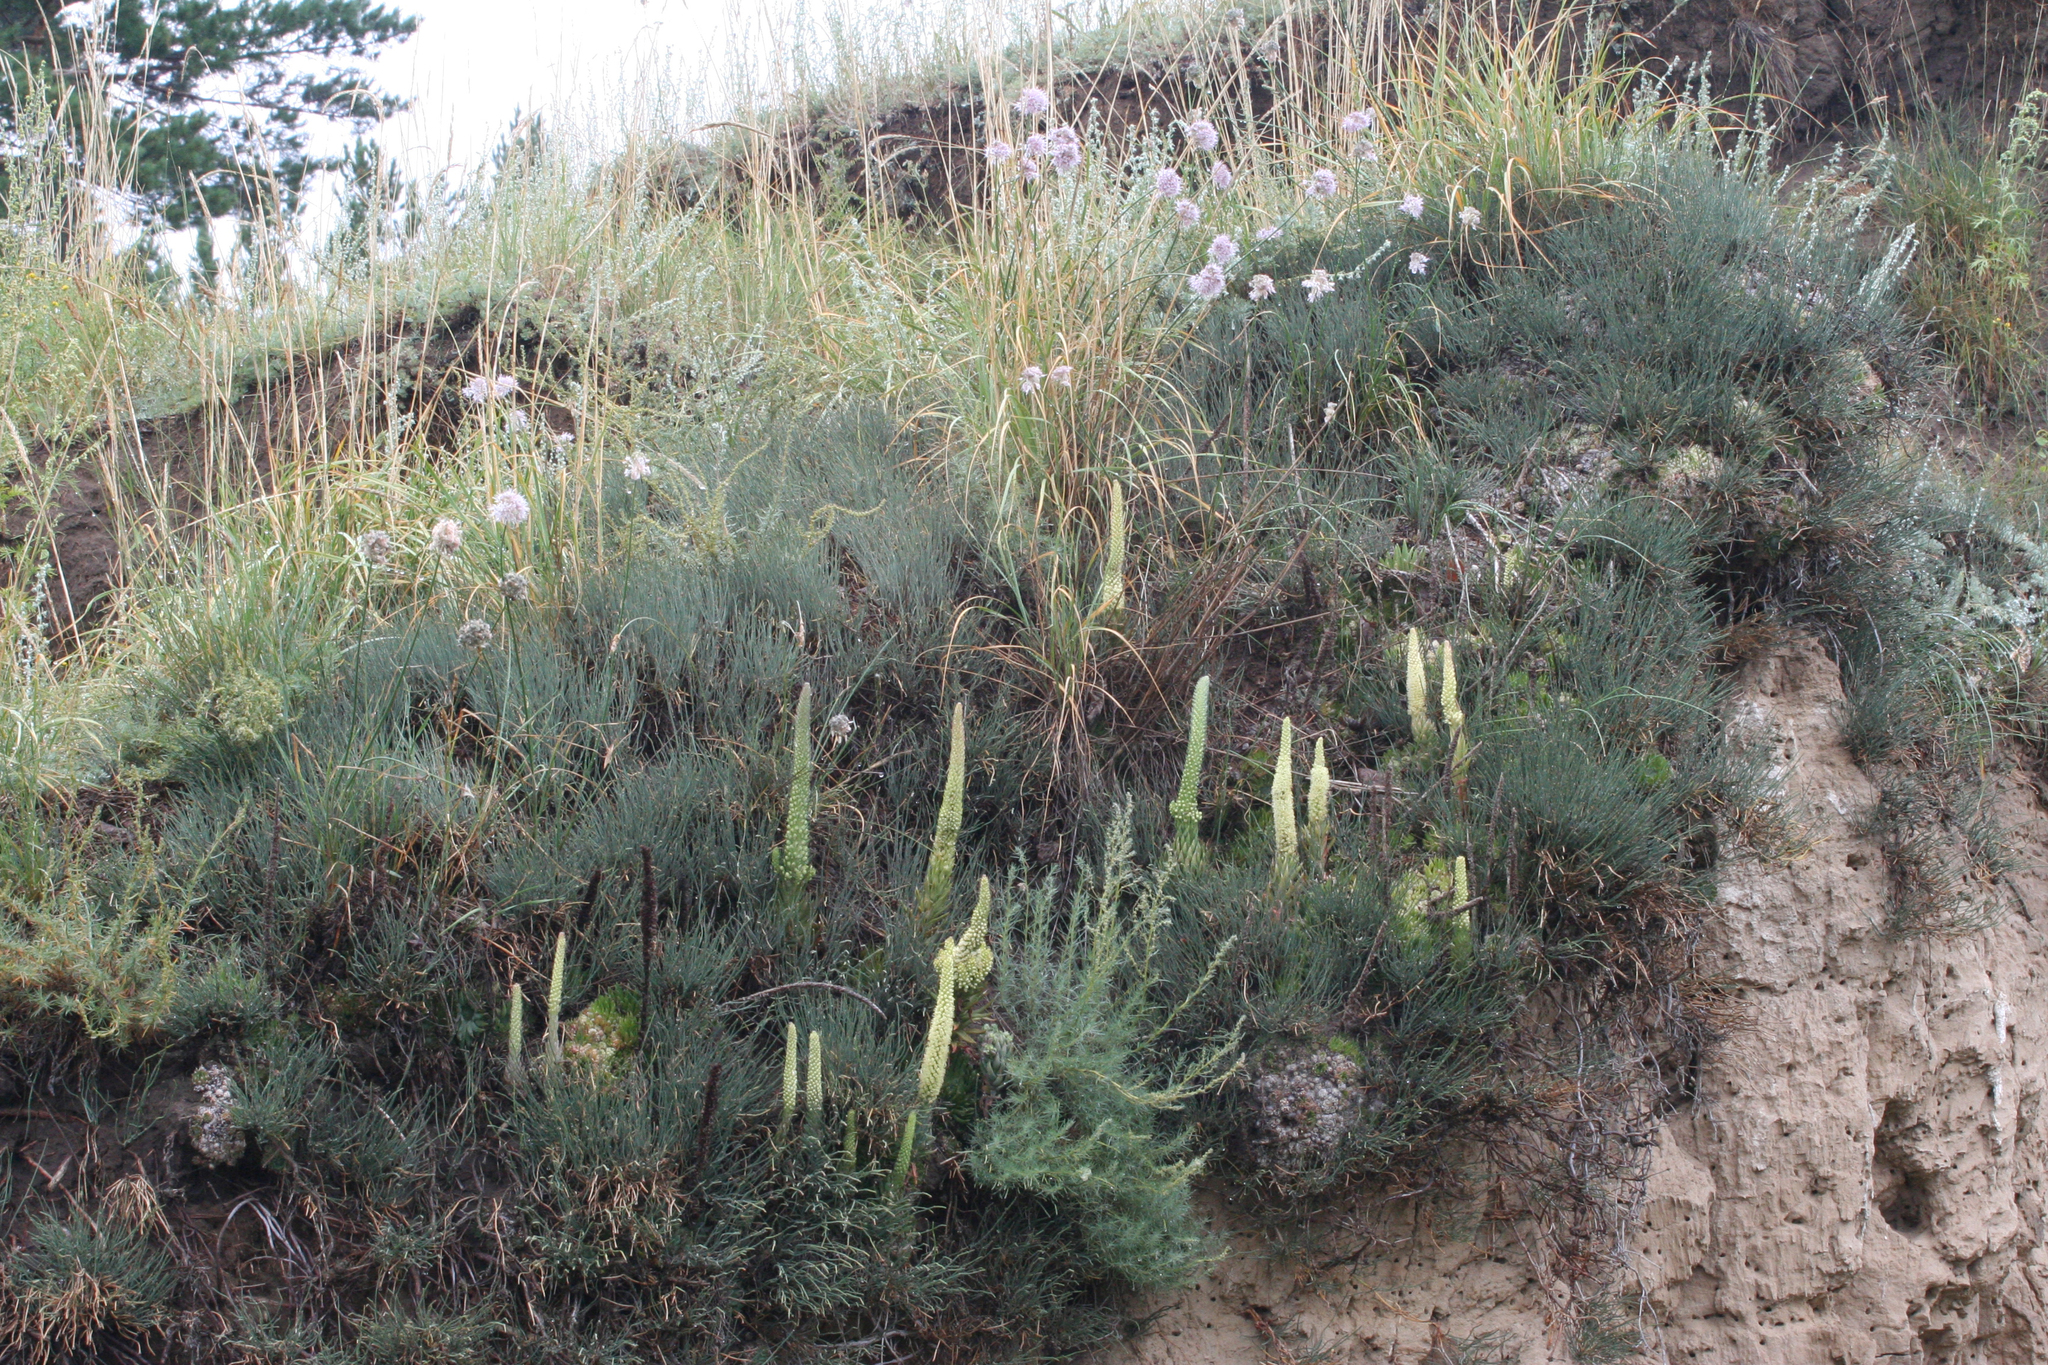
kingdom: Plantae
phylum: Tracheophyta
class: Magnoliopsida
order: Saxifragales
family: Crassulaceae
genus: Orostachys
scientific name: Orostachys spinosa
